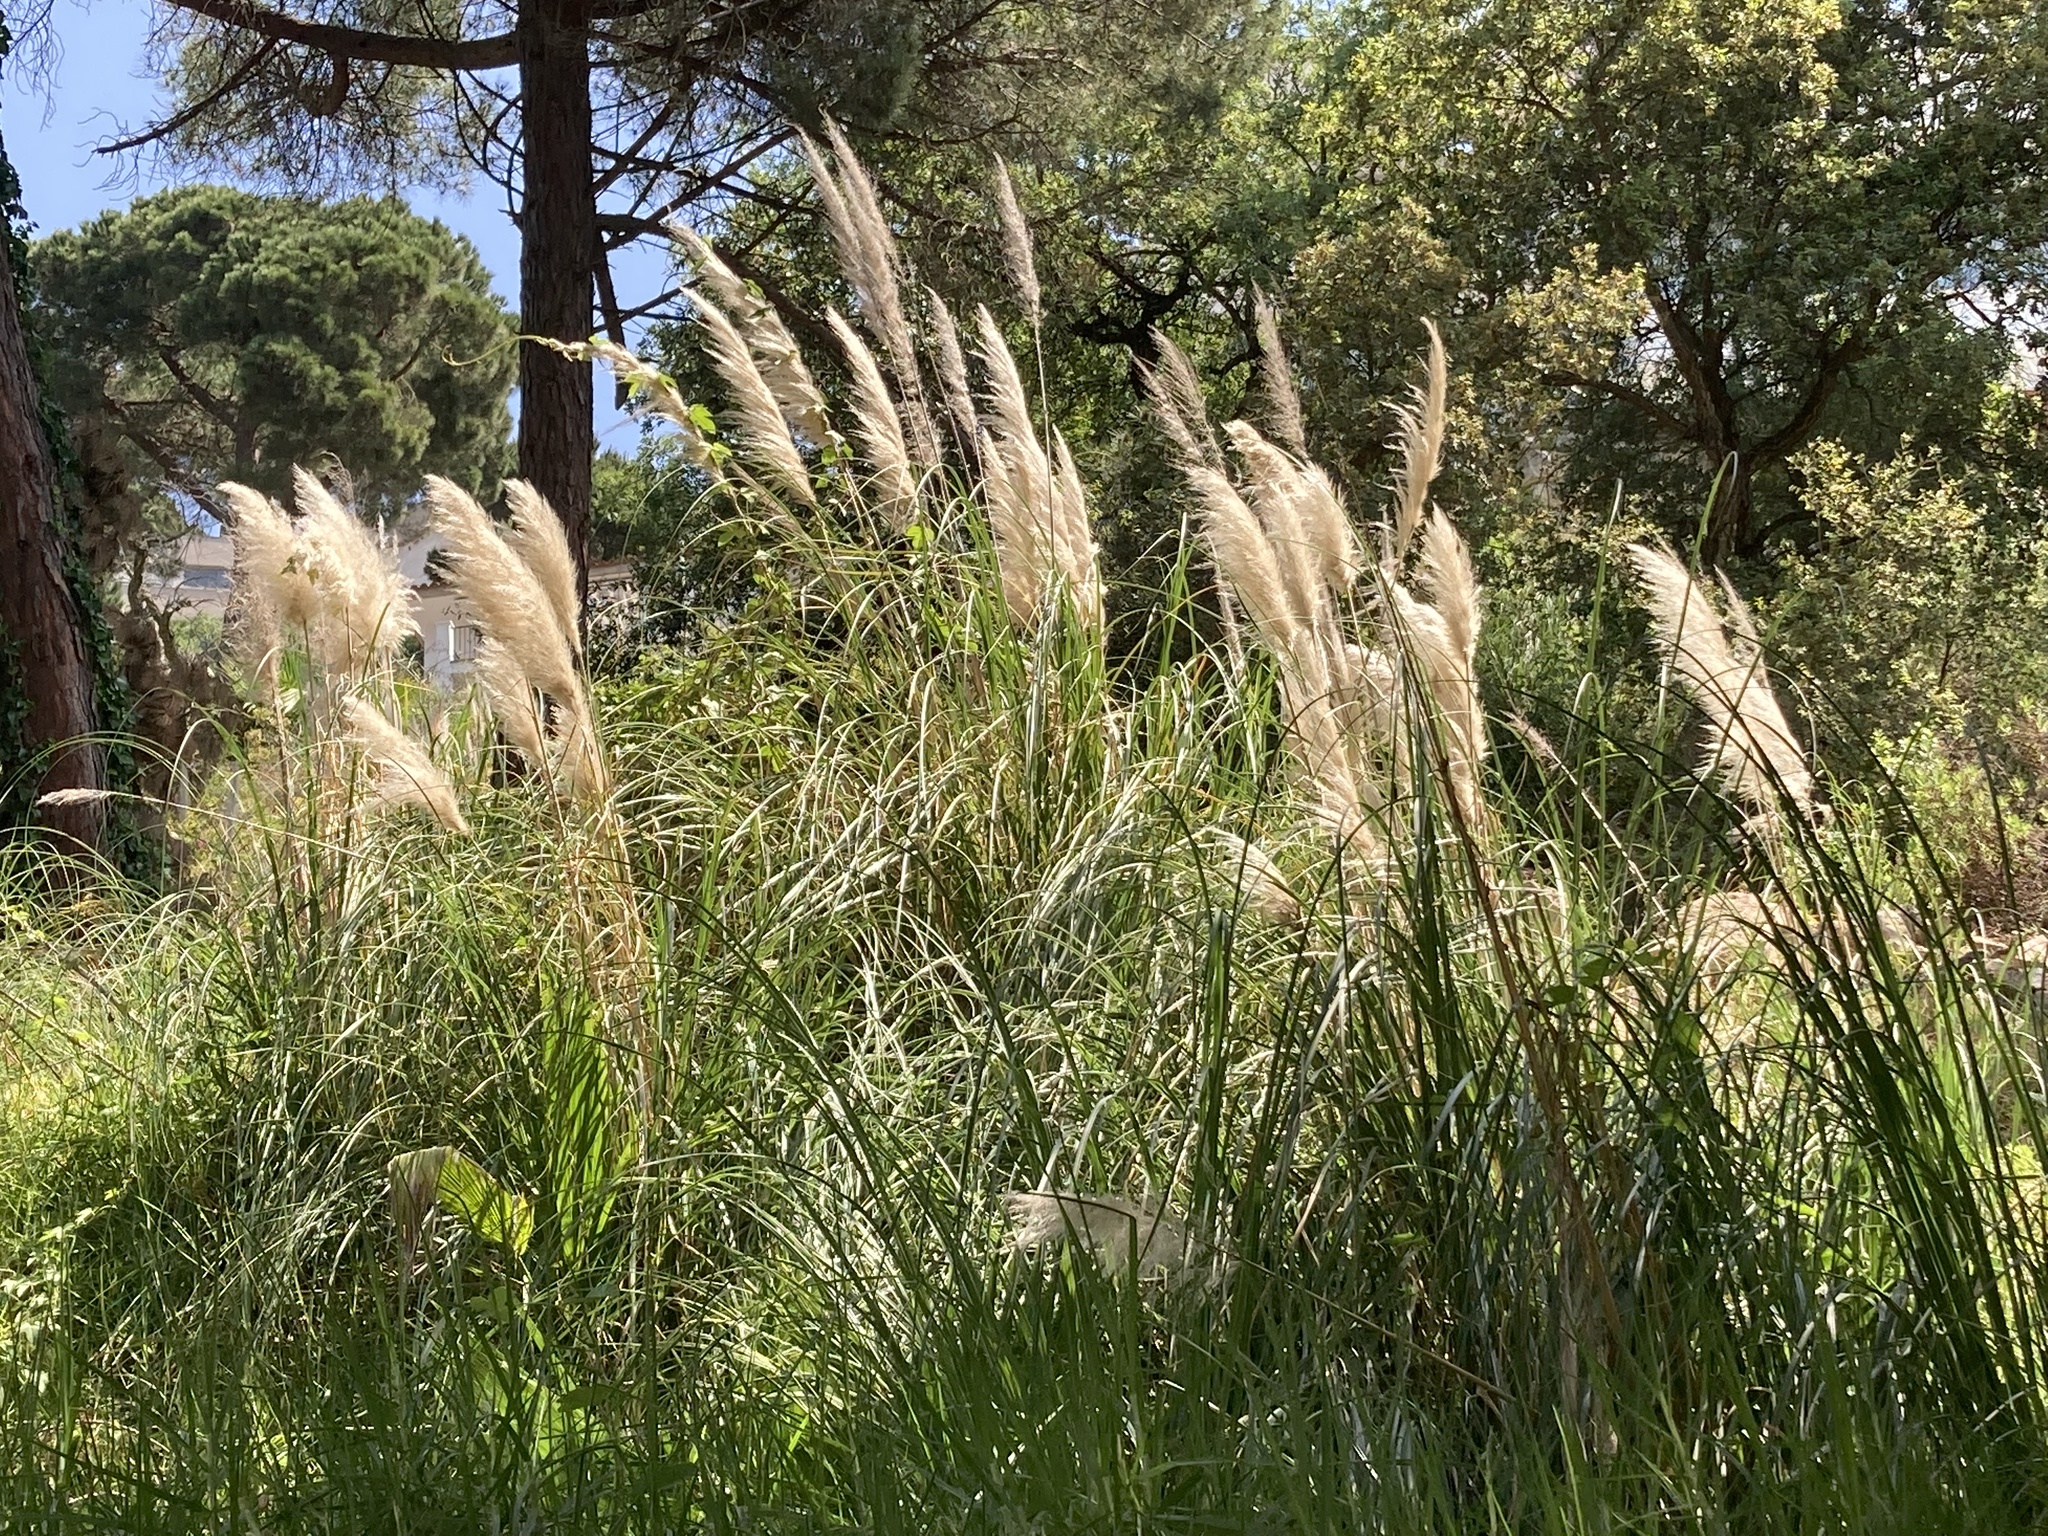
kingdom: Plantae
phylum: Tracheophyta
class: Liliopsida
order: Poales
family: Poaceae
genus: Cortaderia
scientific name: Cortaderia selloana
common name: Uruguayan pampas grass
